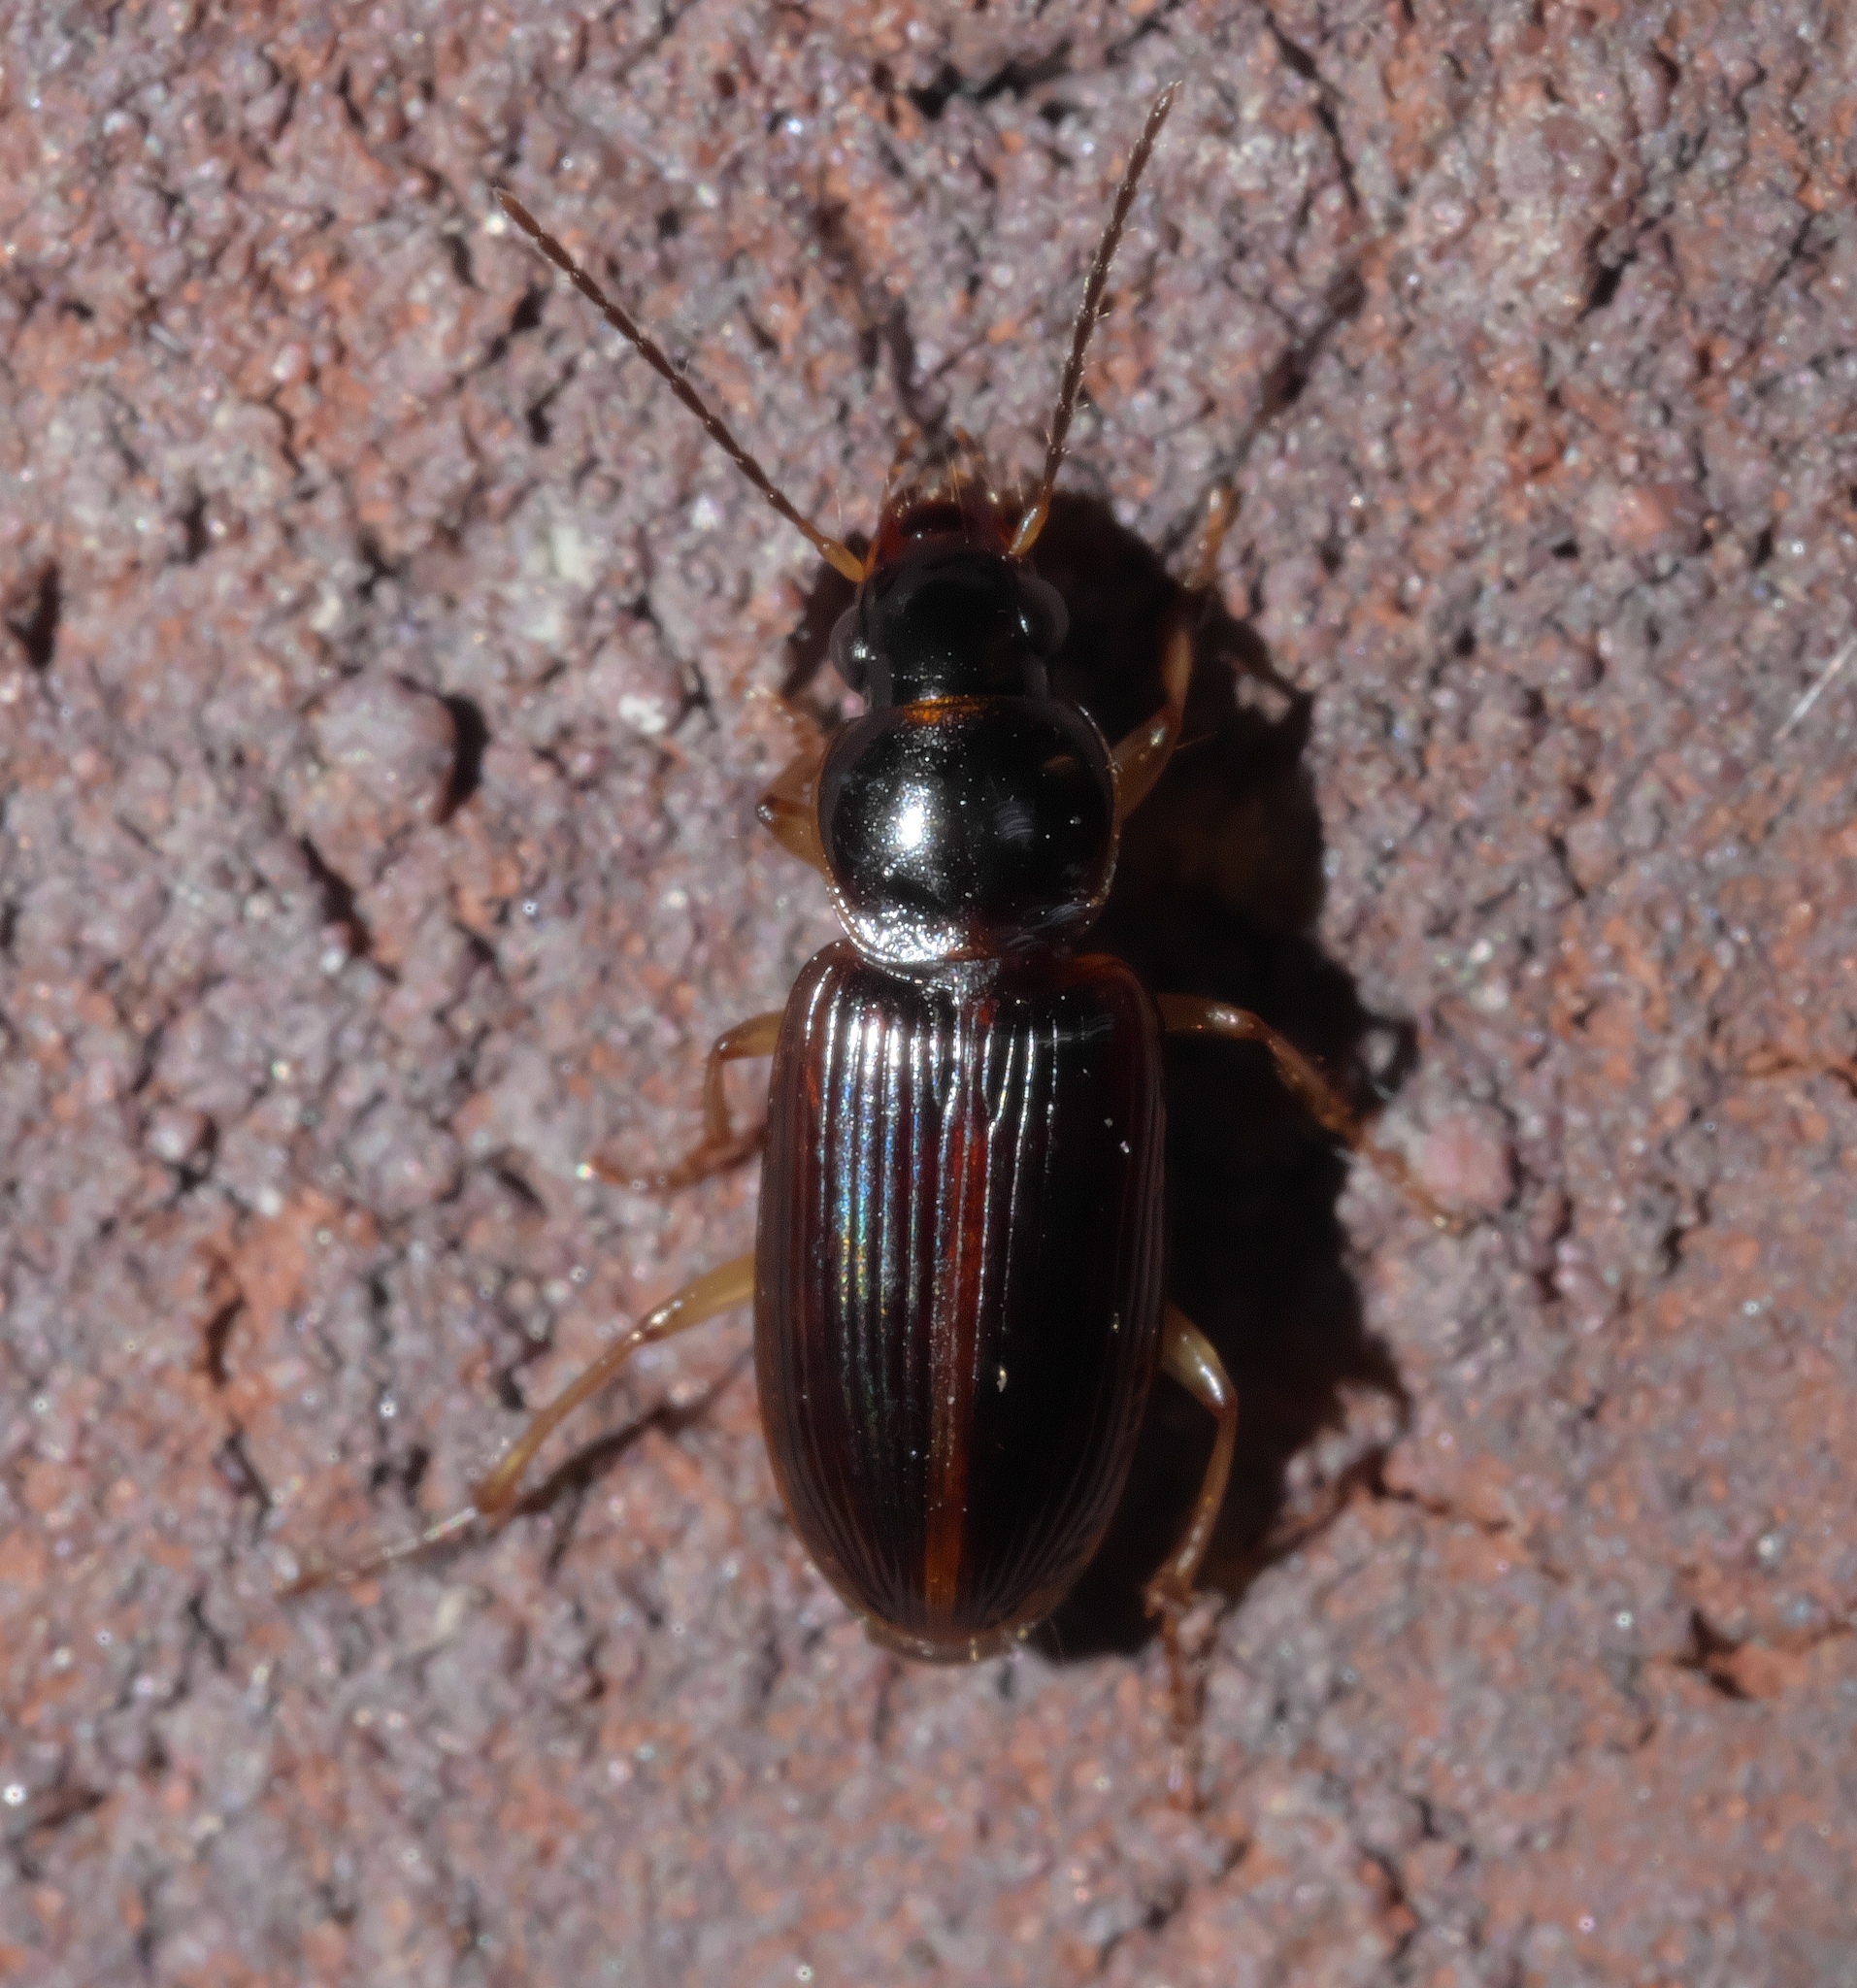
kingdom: Animalia
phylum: Arthropoda
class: Insecta
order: Coleoptera
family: Carabidae
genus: Stenolophus
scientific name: Stenolophus ochropezus
